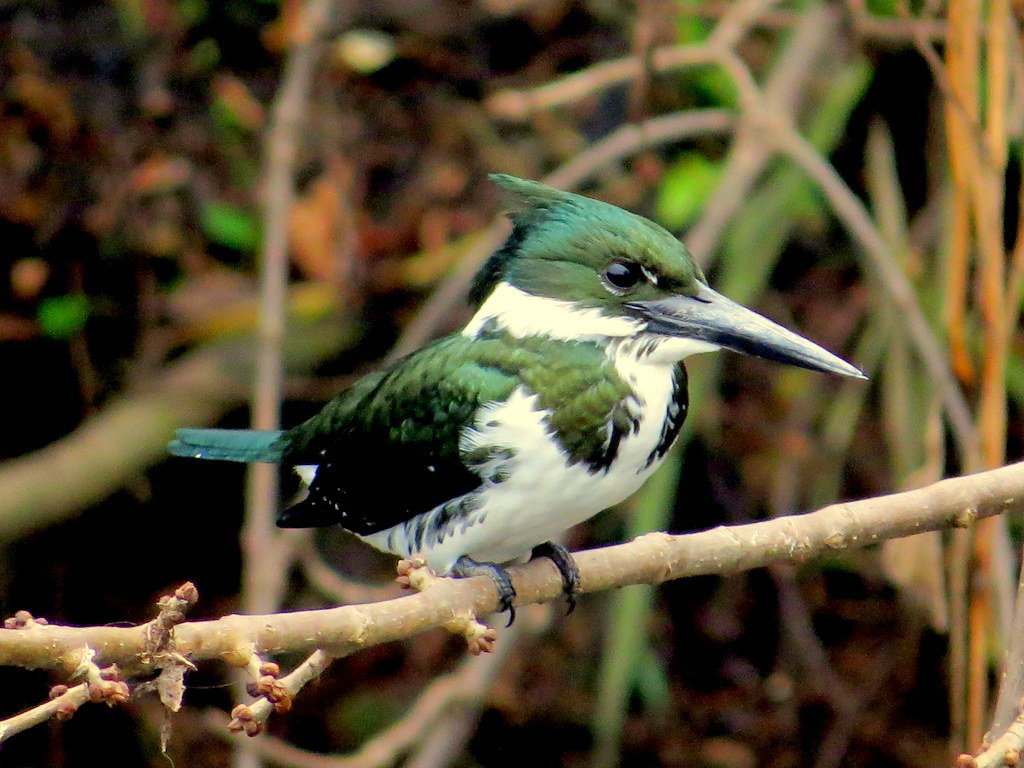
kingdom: Animalia
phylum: Chordata
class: Aves
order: Coraciiformes
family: Alcedinidae
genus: Chloroceryle
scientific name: Chloroceryle amazona
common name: Amazon kingfisher
